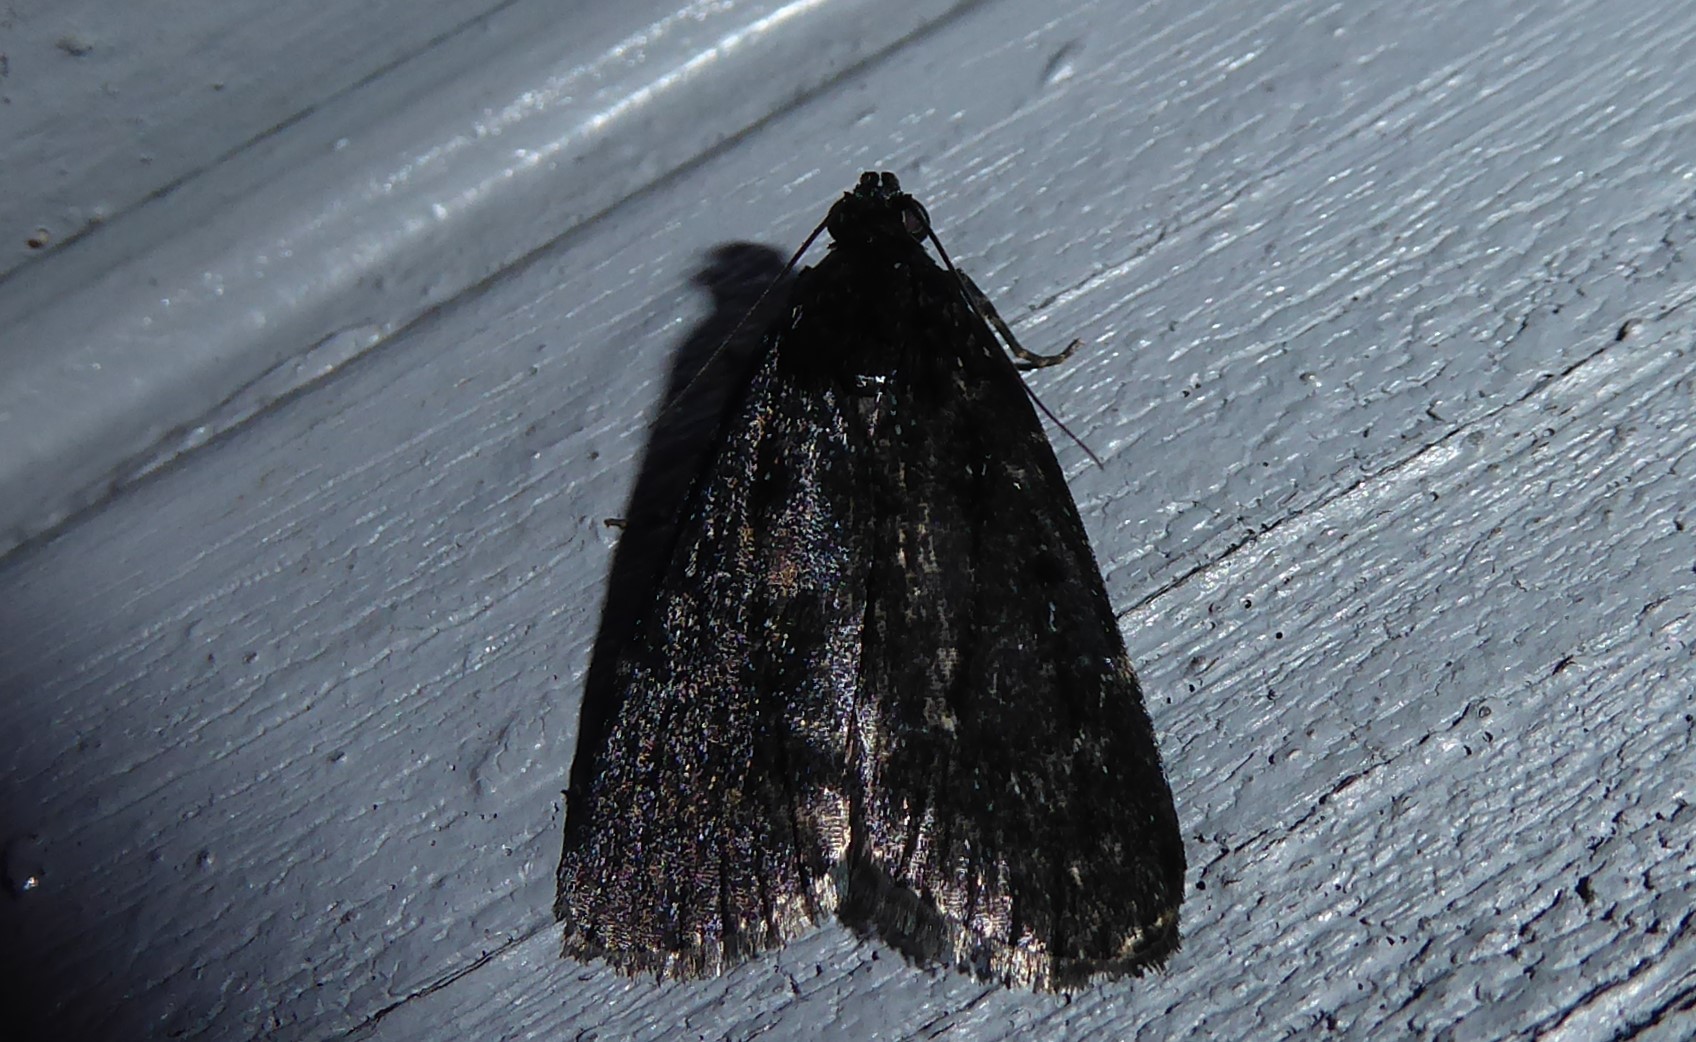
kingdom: Animalia
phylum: Arthropoda
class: Insecta
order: Lepidoptera
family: Pyralidae
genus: Stericta
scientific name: Stericta carbonalis
